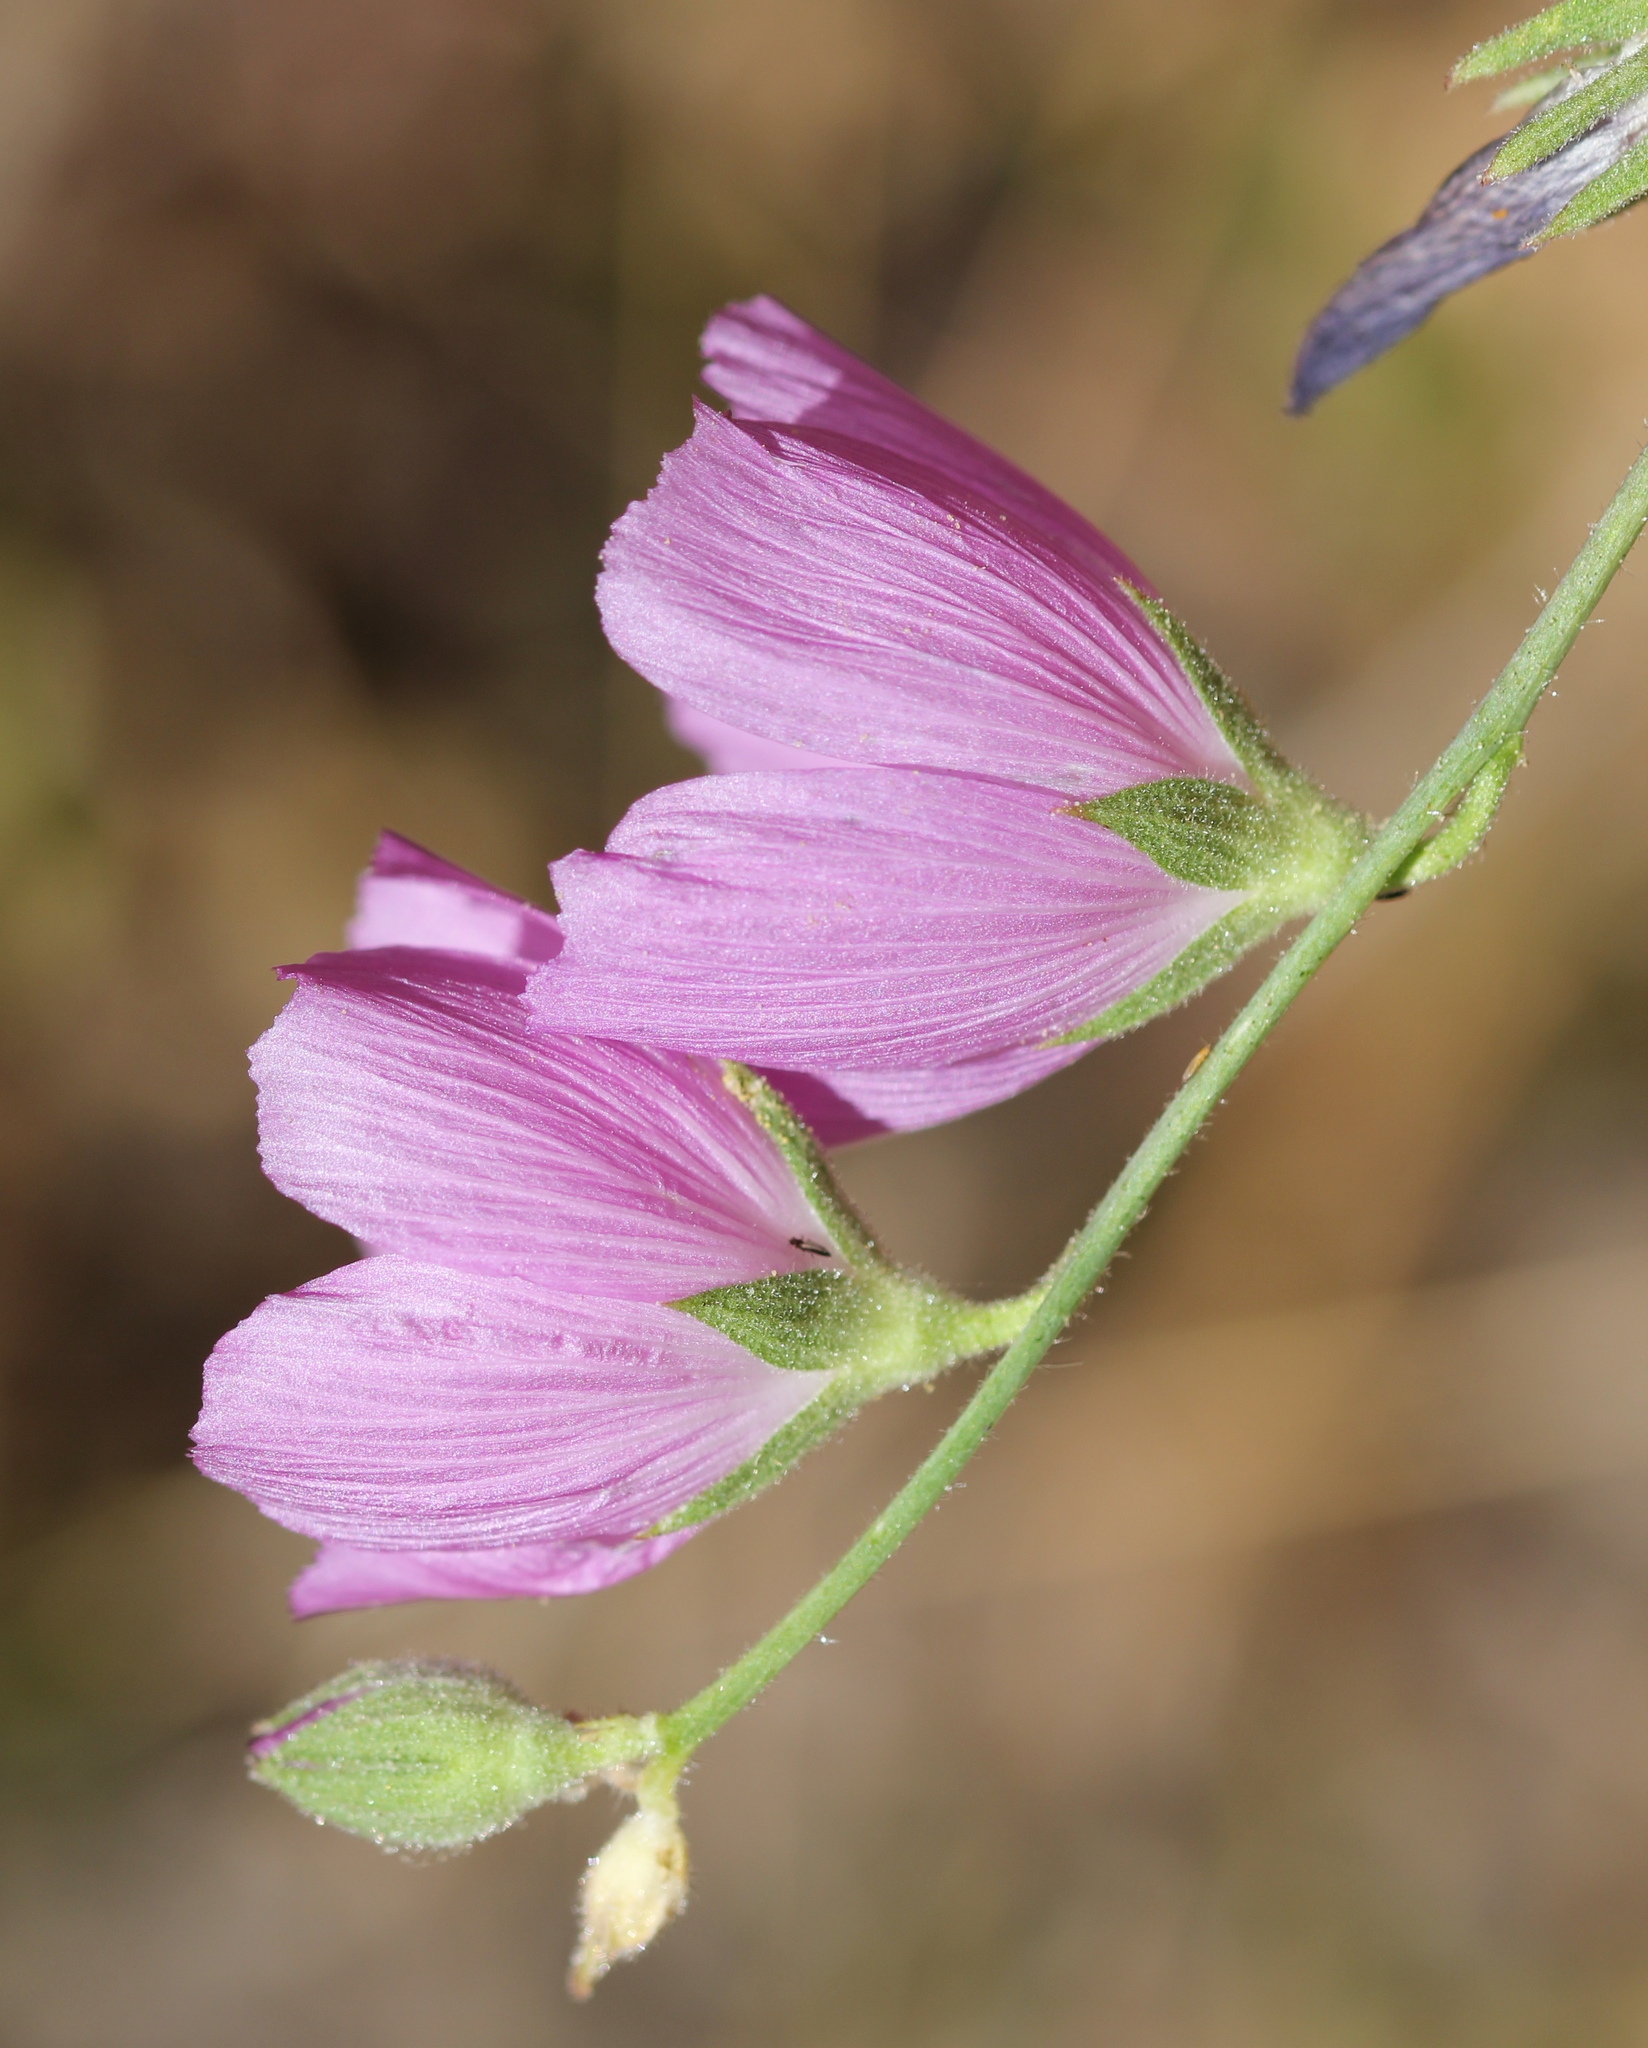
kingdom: Plantae
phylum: Tracheophyta
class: Magnoliopsida
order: Malvales
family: Malvaceae
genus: Sidalcea
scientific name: Sidalcea sparsifolia
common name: Southern checkerbloom
